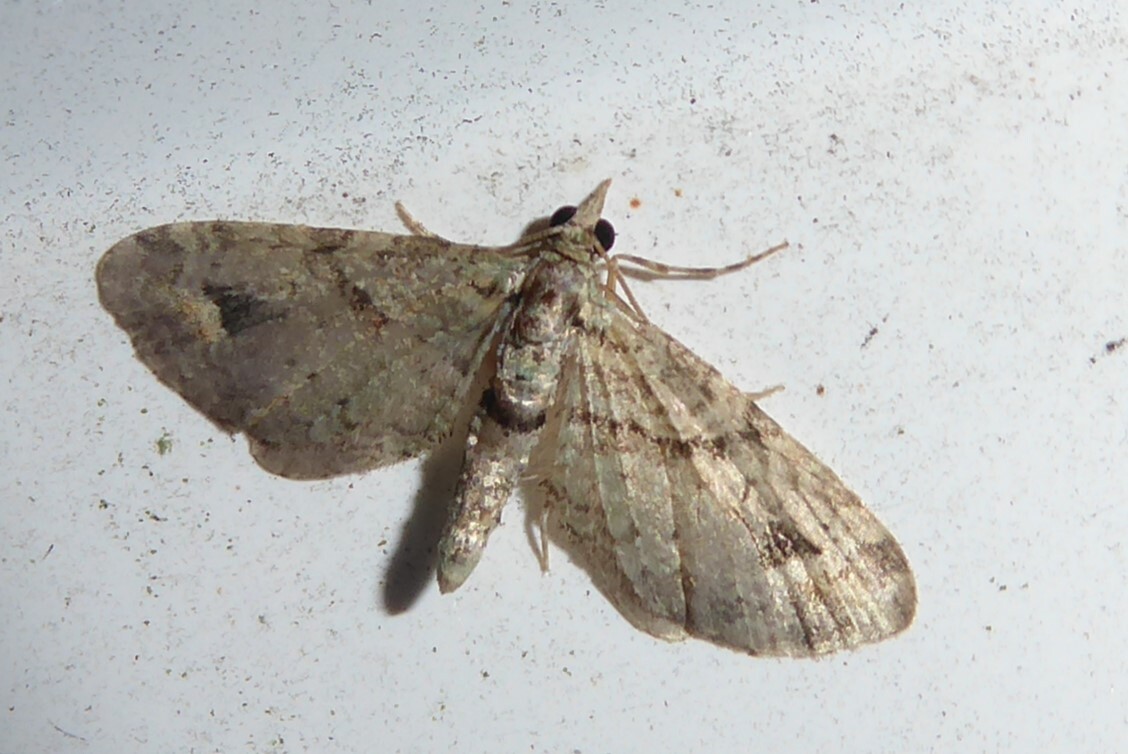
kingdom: Animalia
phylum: Arthropoda
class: Insecta
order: Lepidoptera
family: Geometridae
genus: Idaea
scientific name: Idaea mutanda
